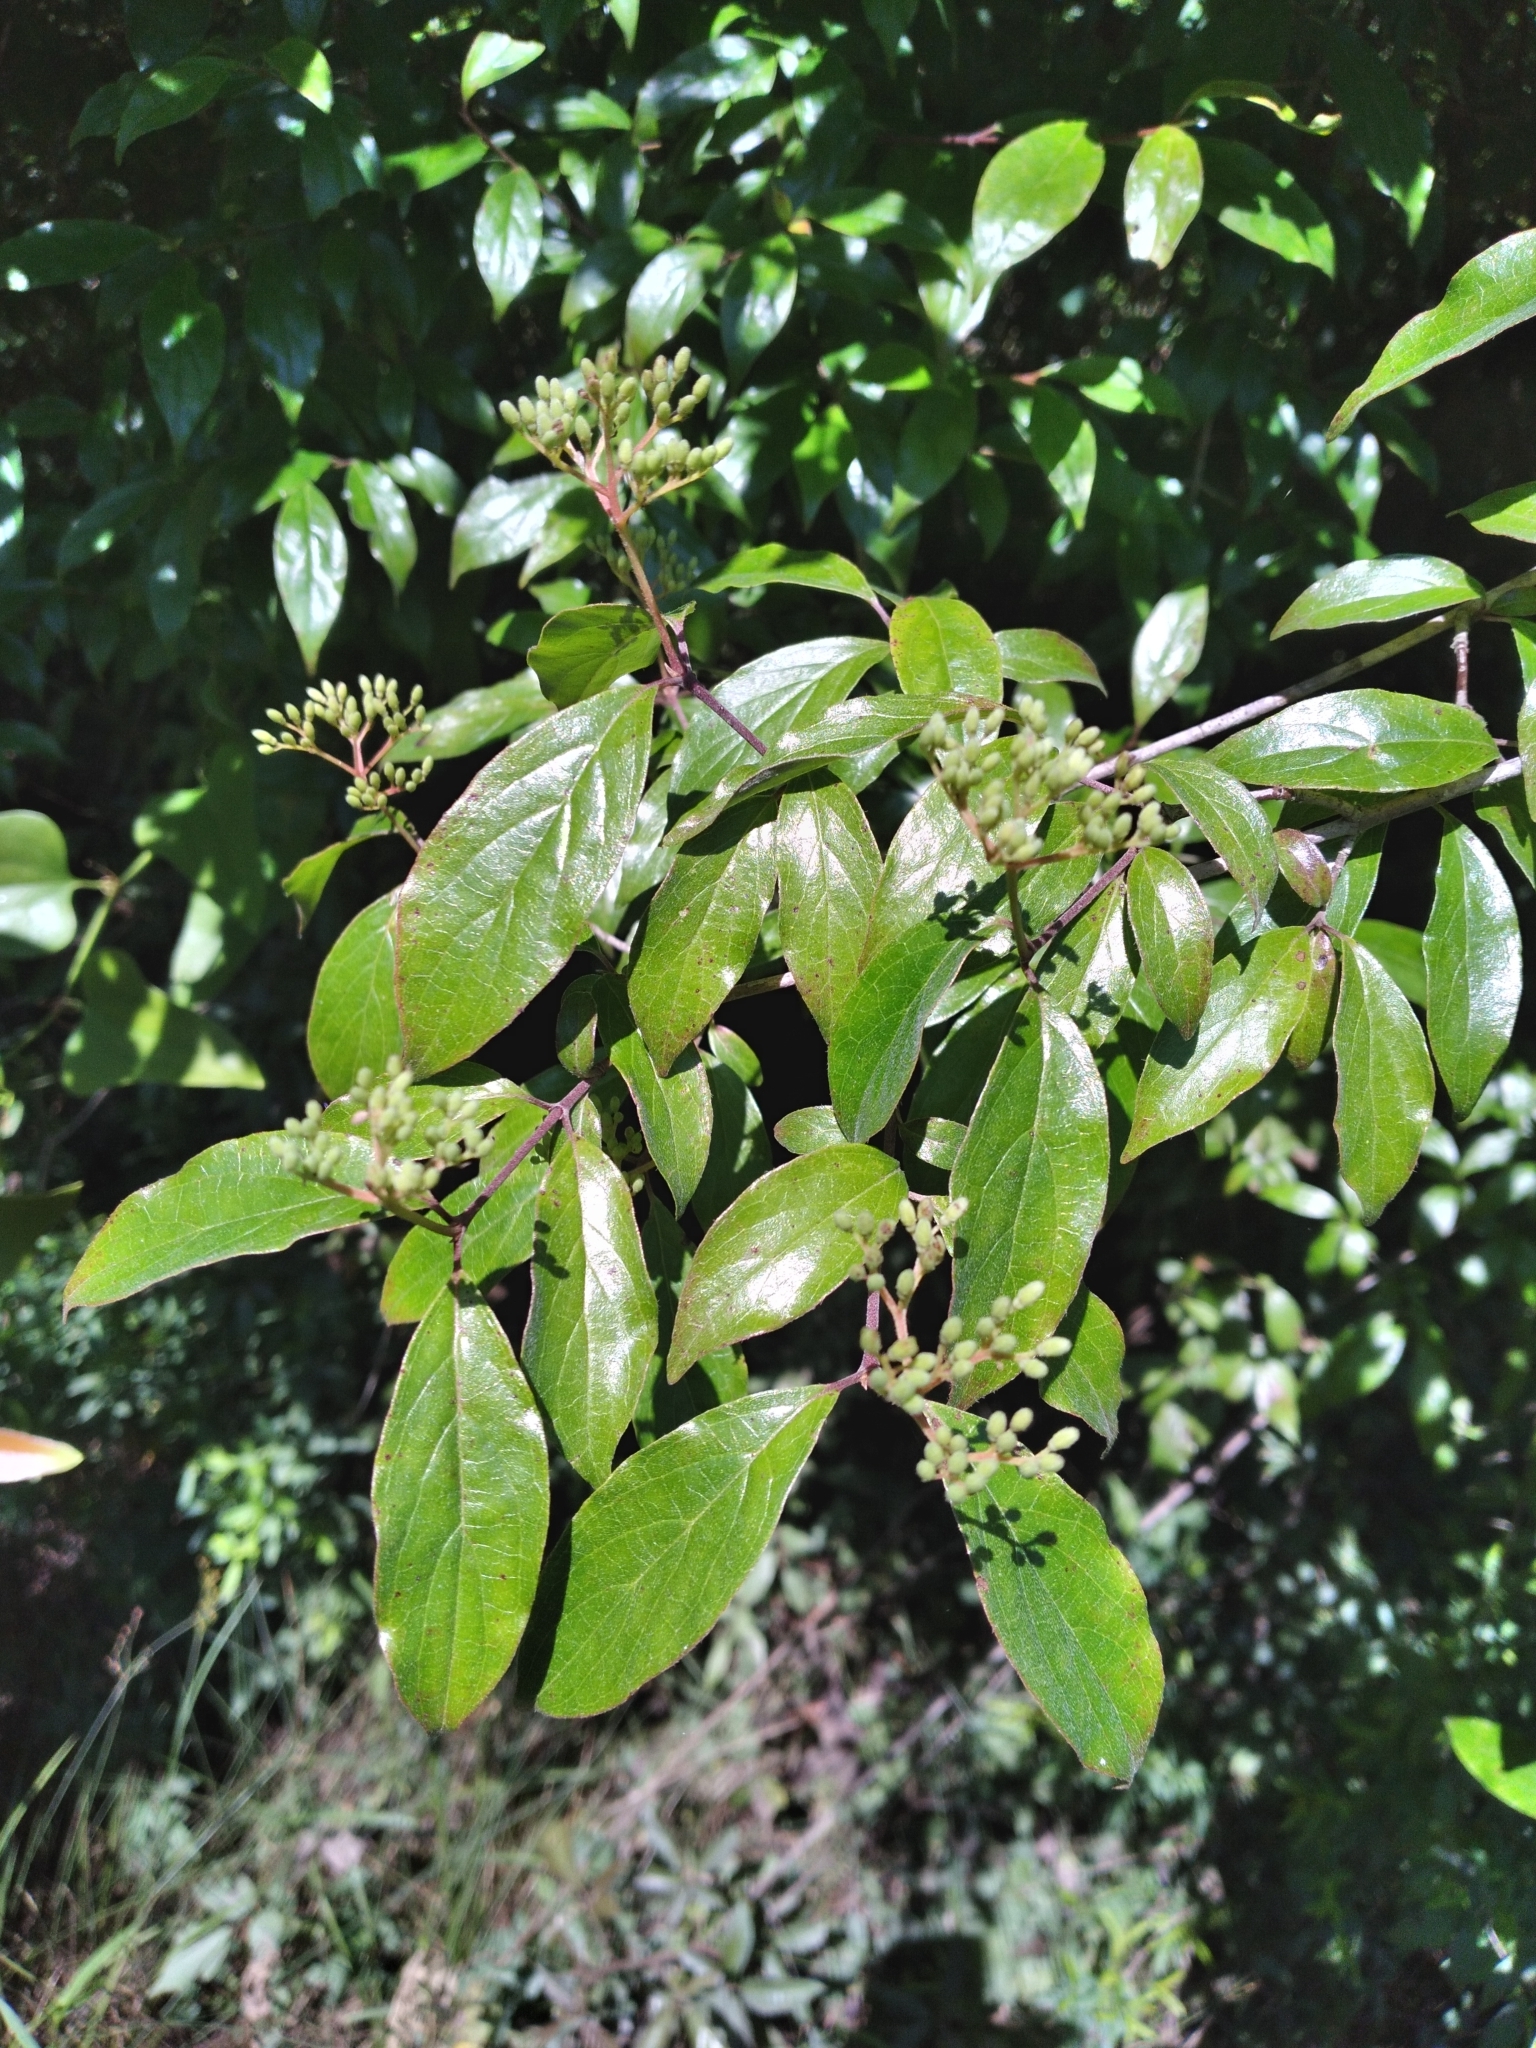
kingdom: Plantae
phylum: Tracheophyta
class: Magnoliopsida
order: Cornales
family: Cornaceae
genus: Cornus
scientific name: Cornus asperifolia
